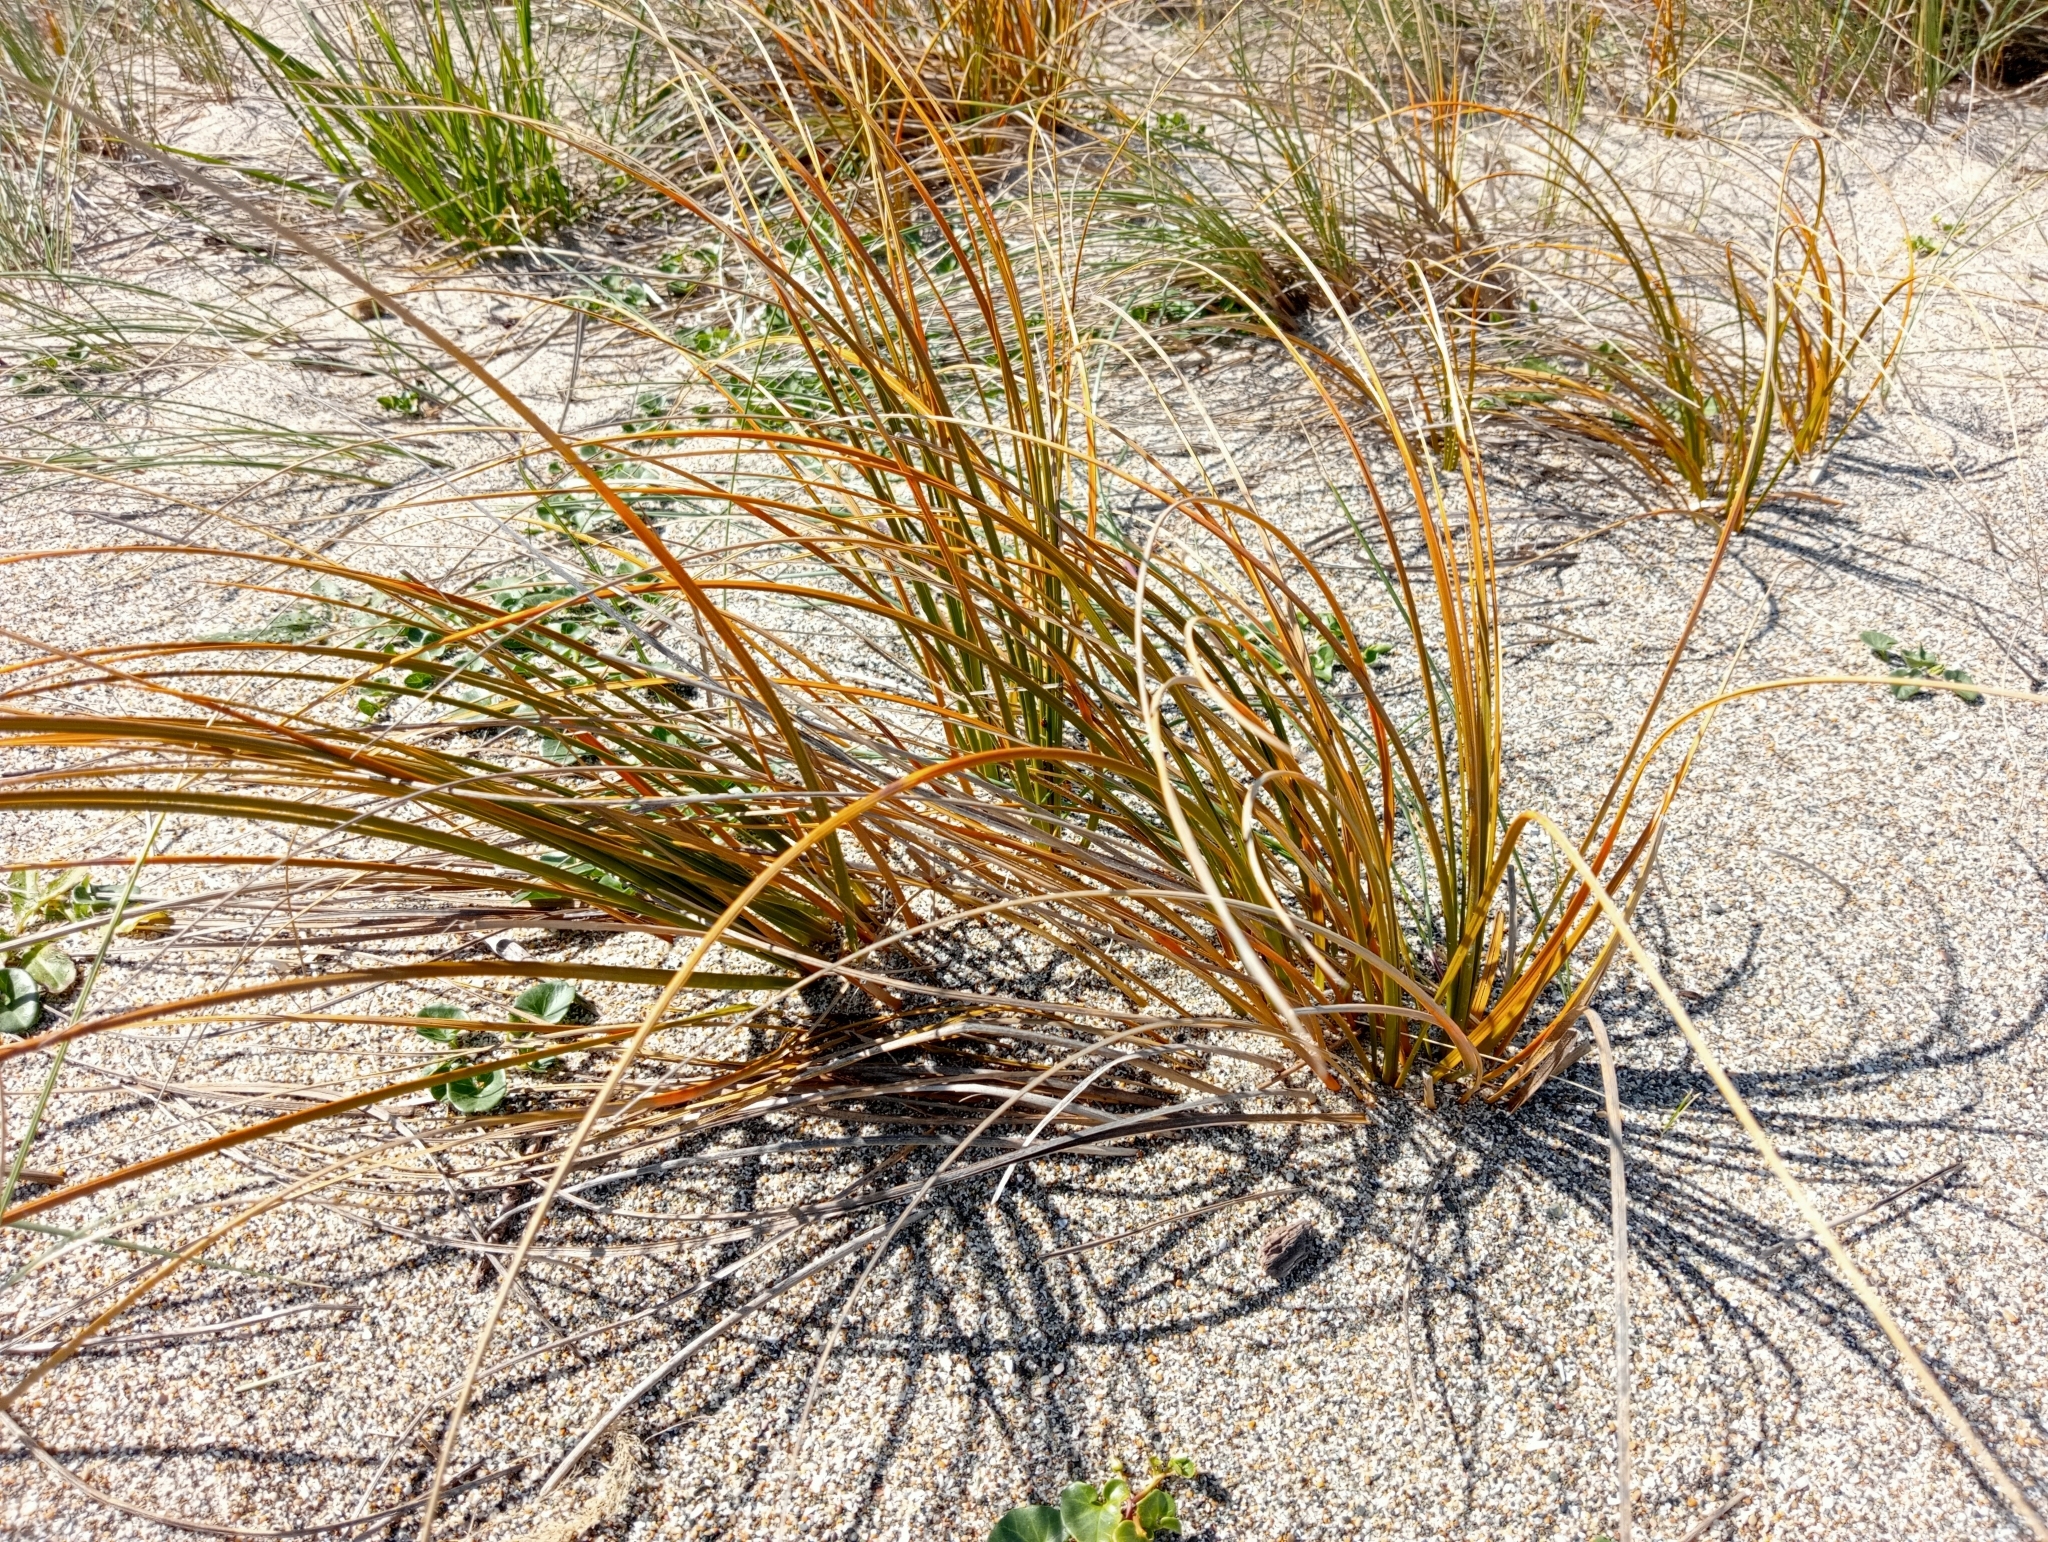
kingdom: Plantae
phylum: Tracheophyta
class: Liliopsida
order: Poales
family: Cyperaceae
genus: Ficinia
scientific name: Ficinia spiralis
